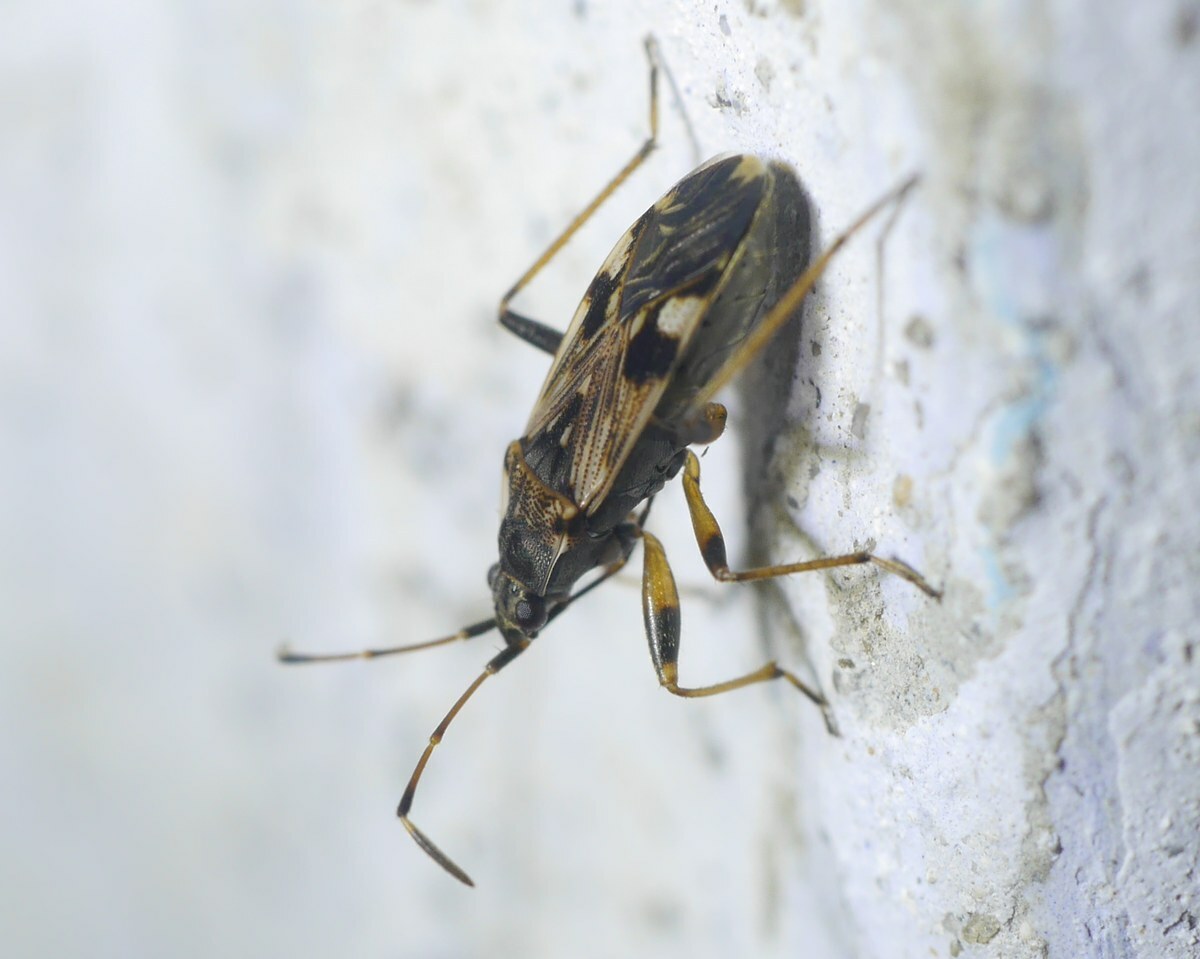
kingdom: Animalia
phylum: Arthropoda
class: Insecta
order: Hemiptera
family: Rhyparochromidae
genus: Beosus
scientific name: Beosus maritimus
